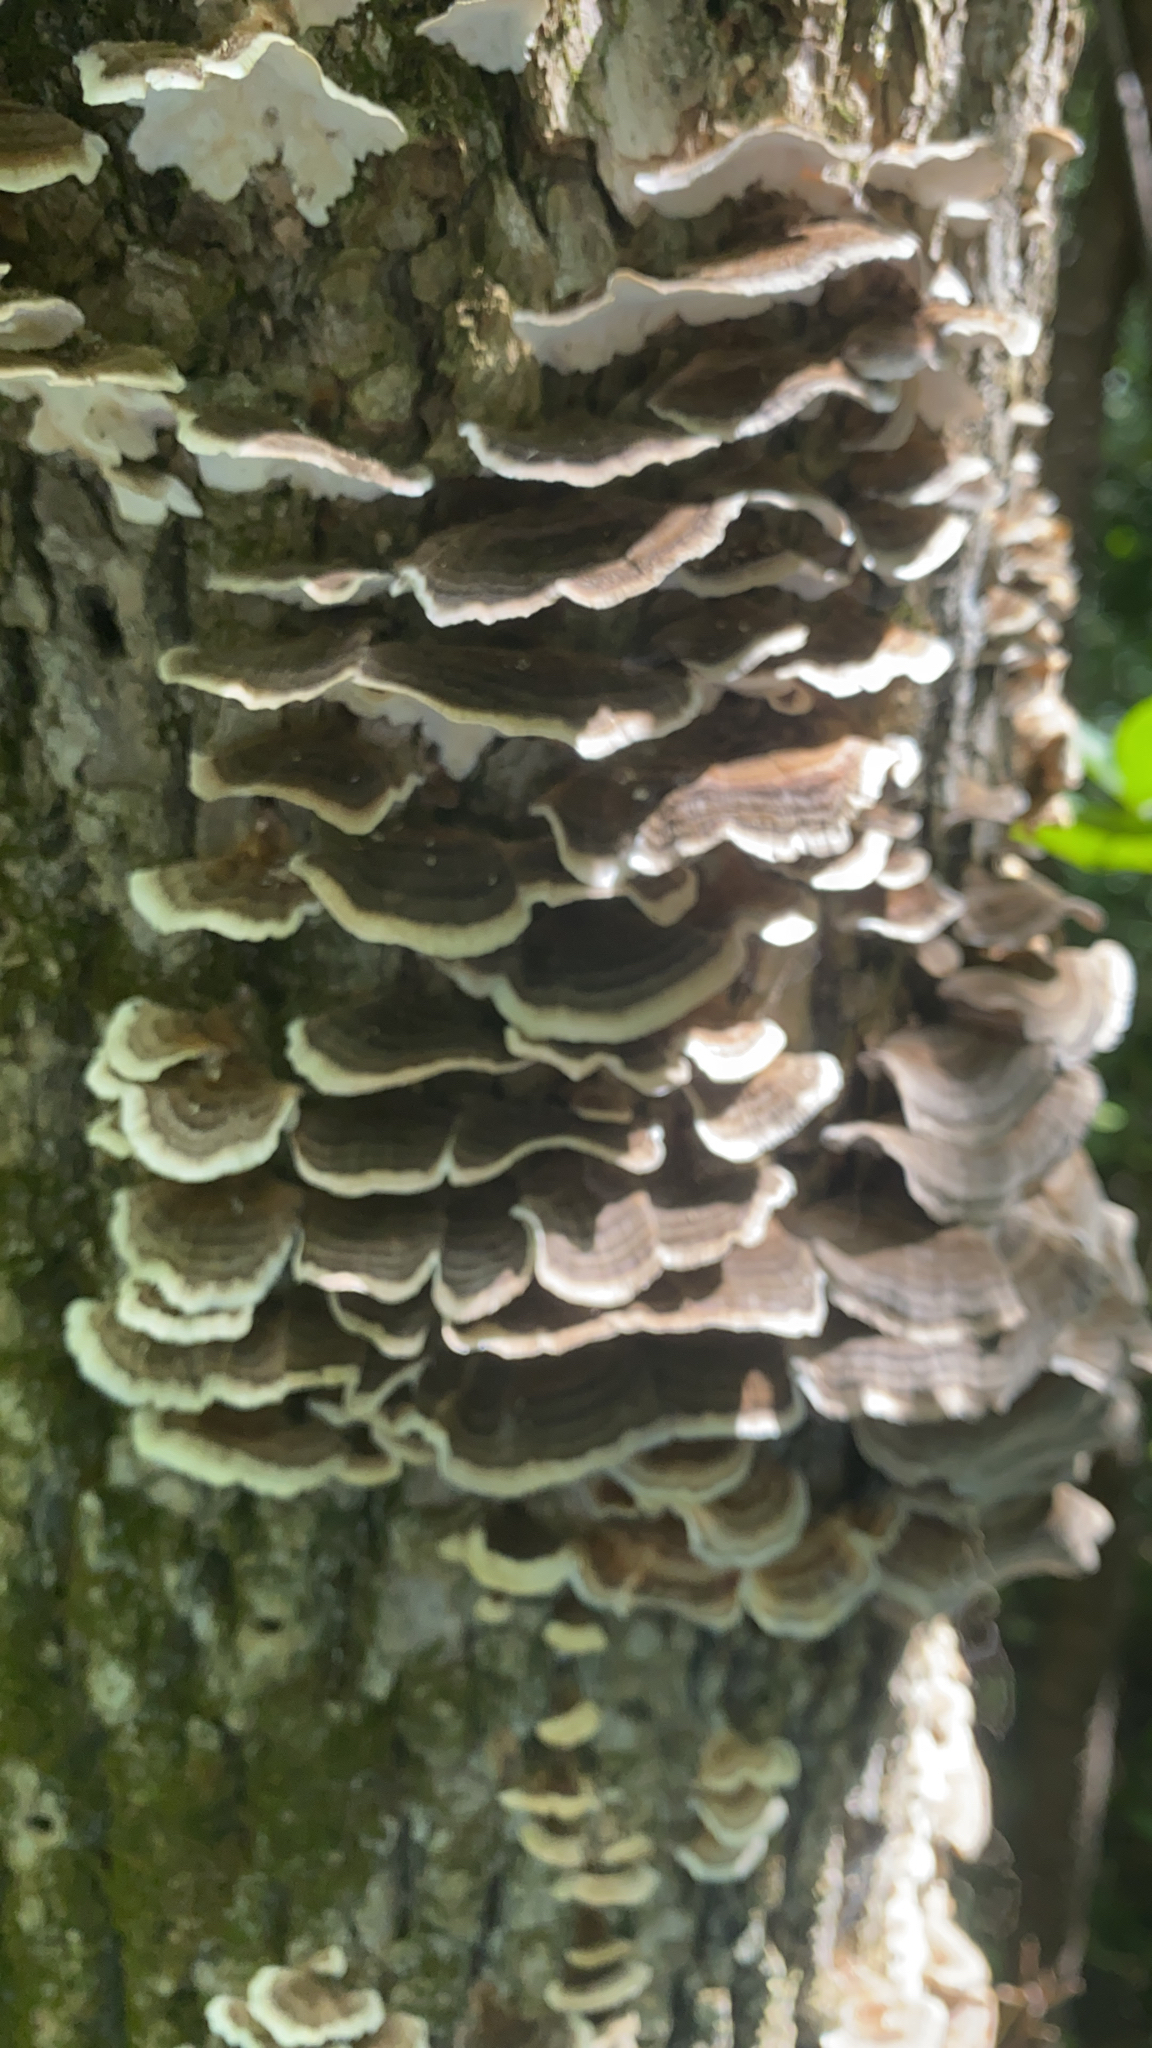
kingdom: Fungi
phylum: Basidiomycota
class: Agaricomycetes
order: Polyporales
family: Polyporaceae
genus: Trametes
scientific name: Trametes versicolor
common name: Turkeytail
